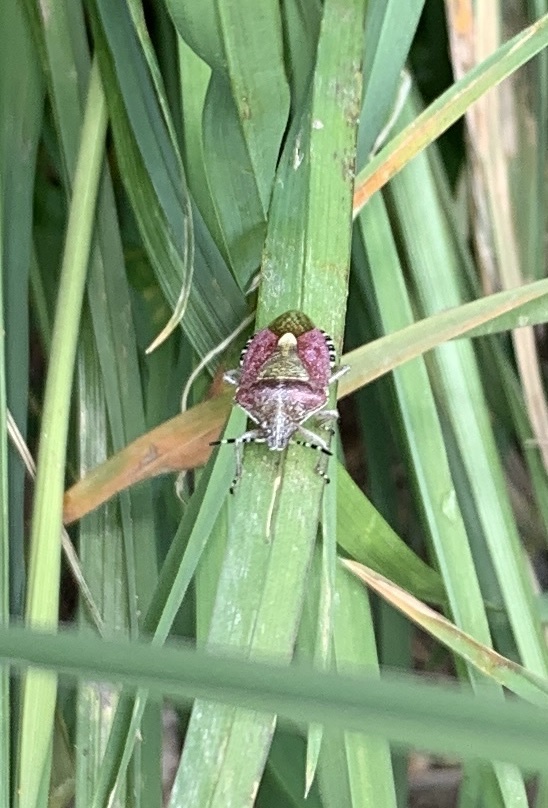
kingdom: Animalia
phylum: Arthropoda
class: Insecta
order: Hemiptera
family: Pentatomidae
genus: Dolycoris
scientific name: Dolycoris baccarum
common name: Sloe bug
